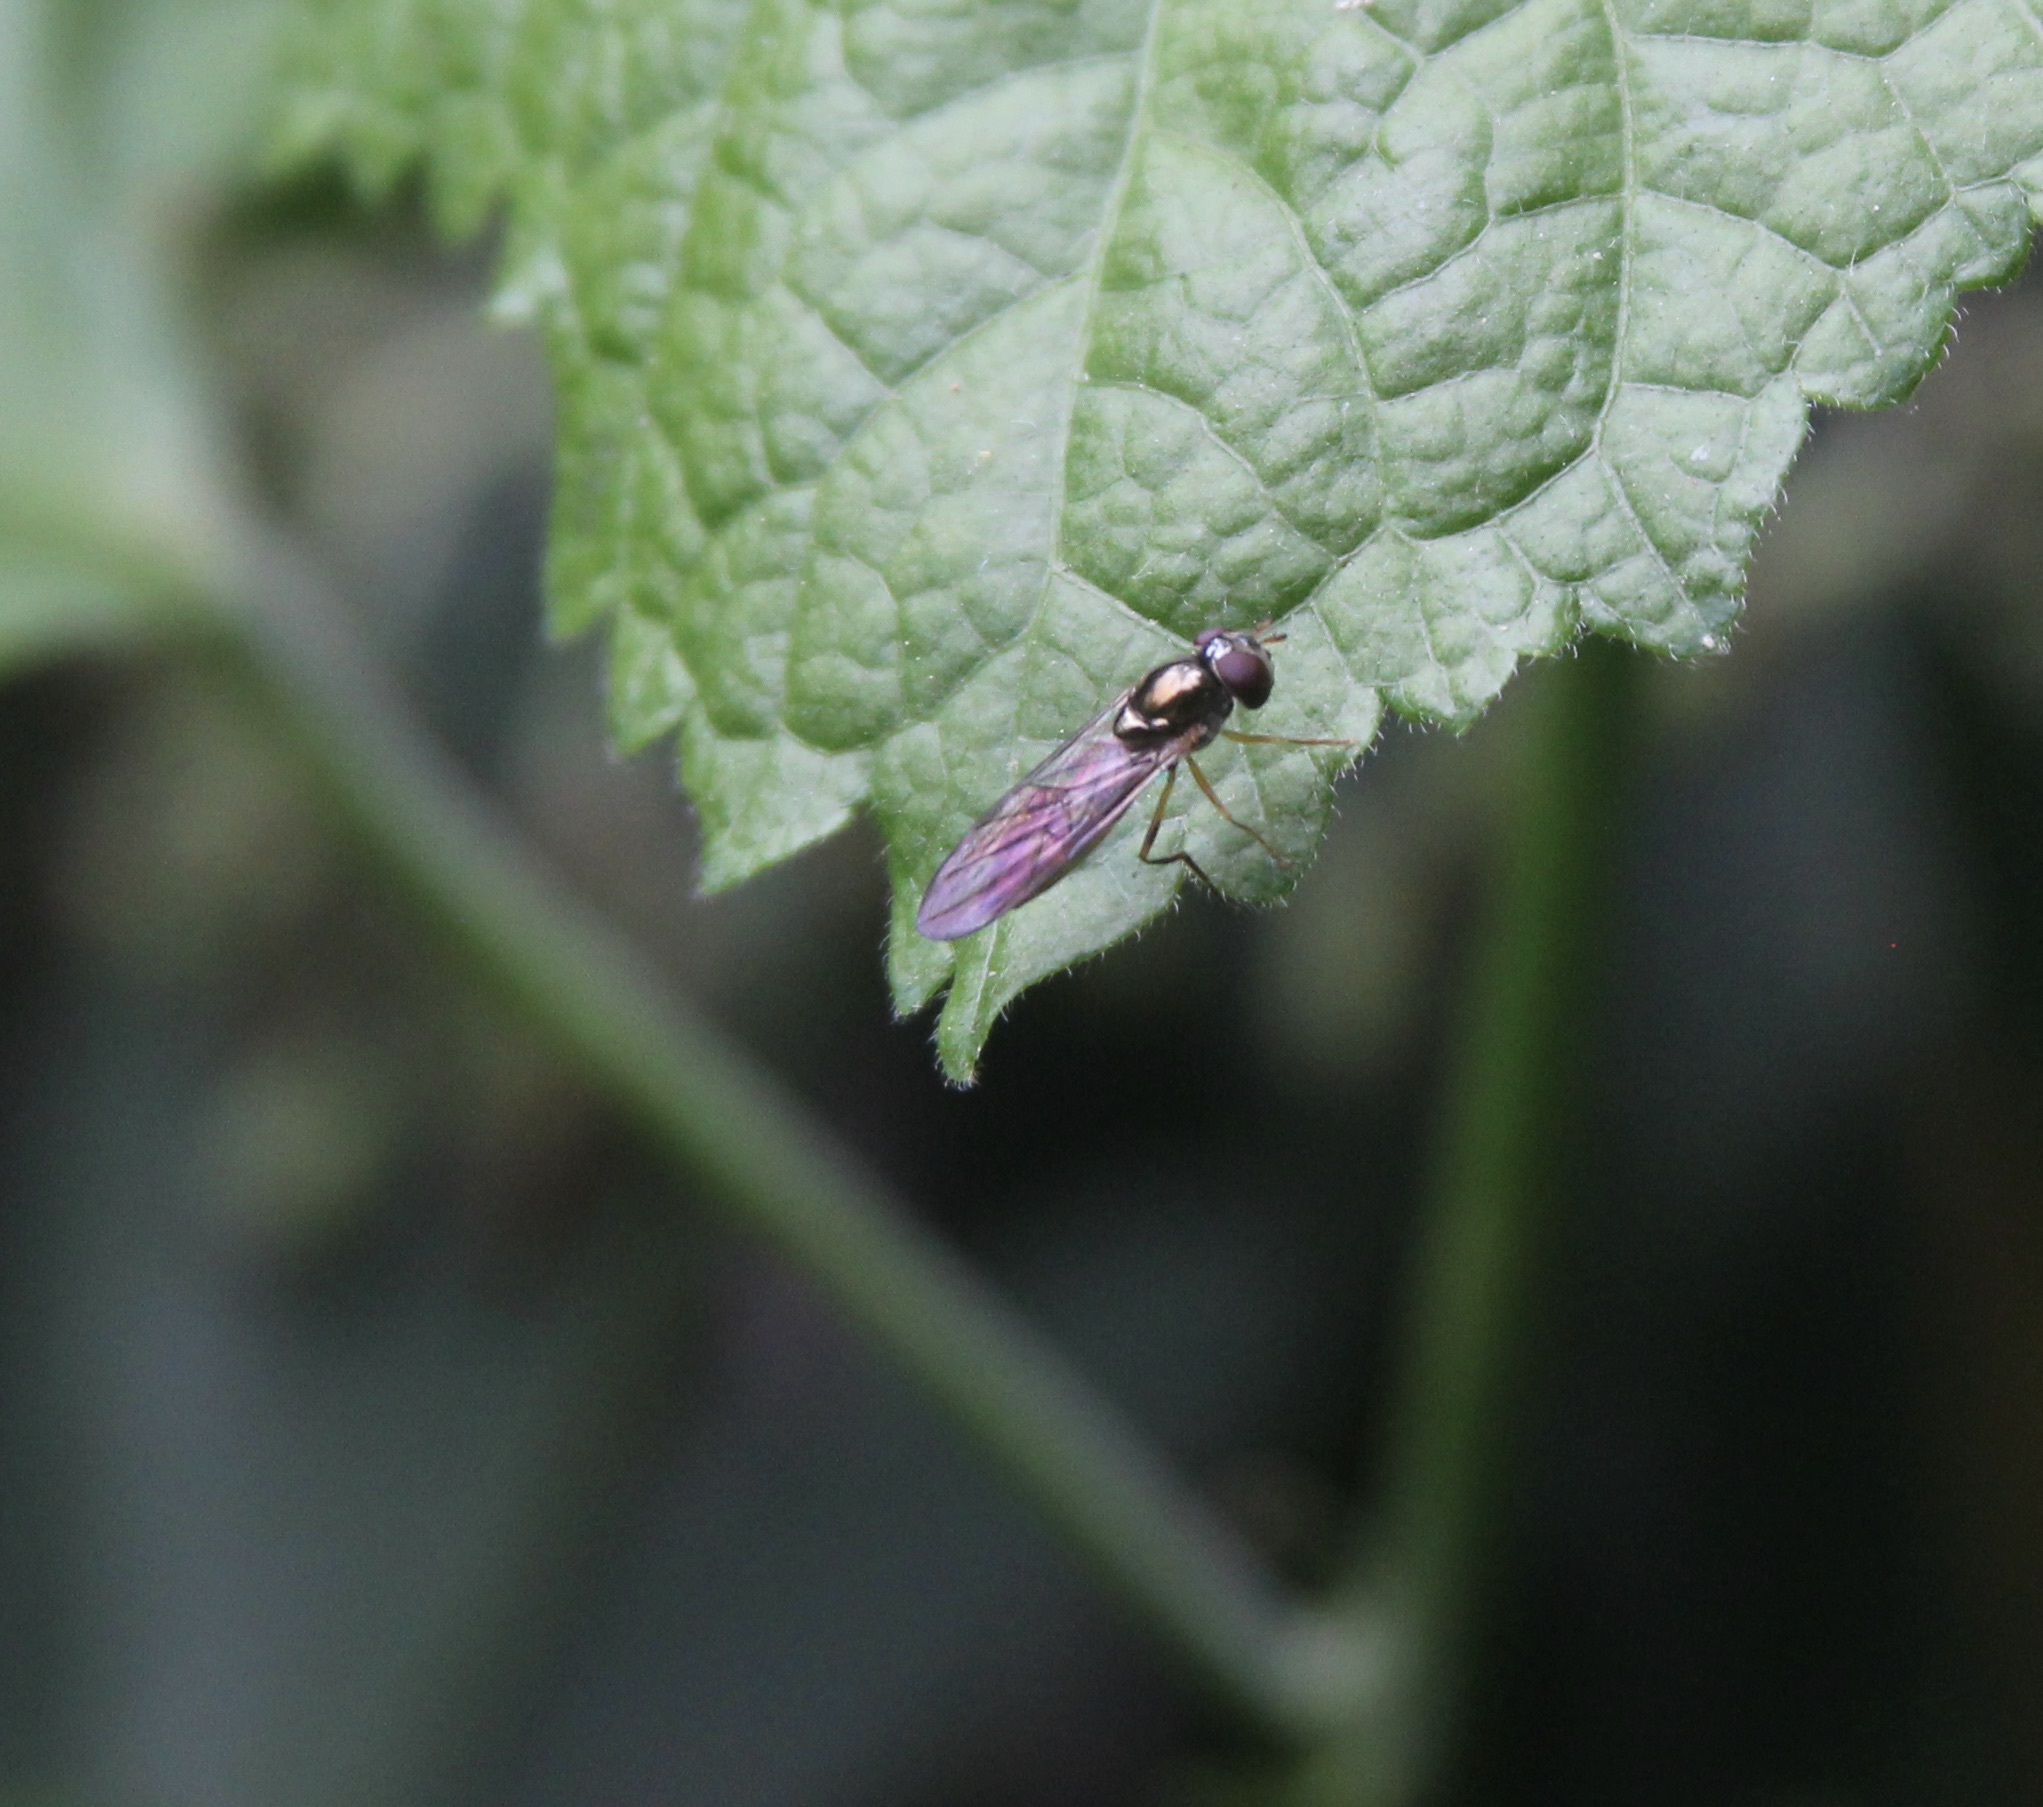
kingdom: Animalia
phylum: Arthropoda
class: Insecta
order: Diptera
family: Syrphidae
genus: Melanostoma
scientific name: Melanostoma mellina
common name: Hover fly
